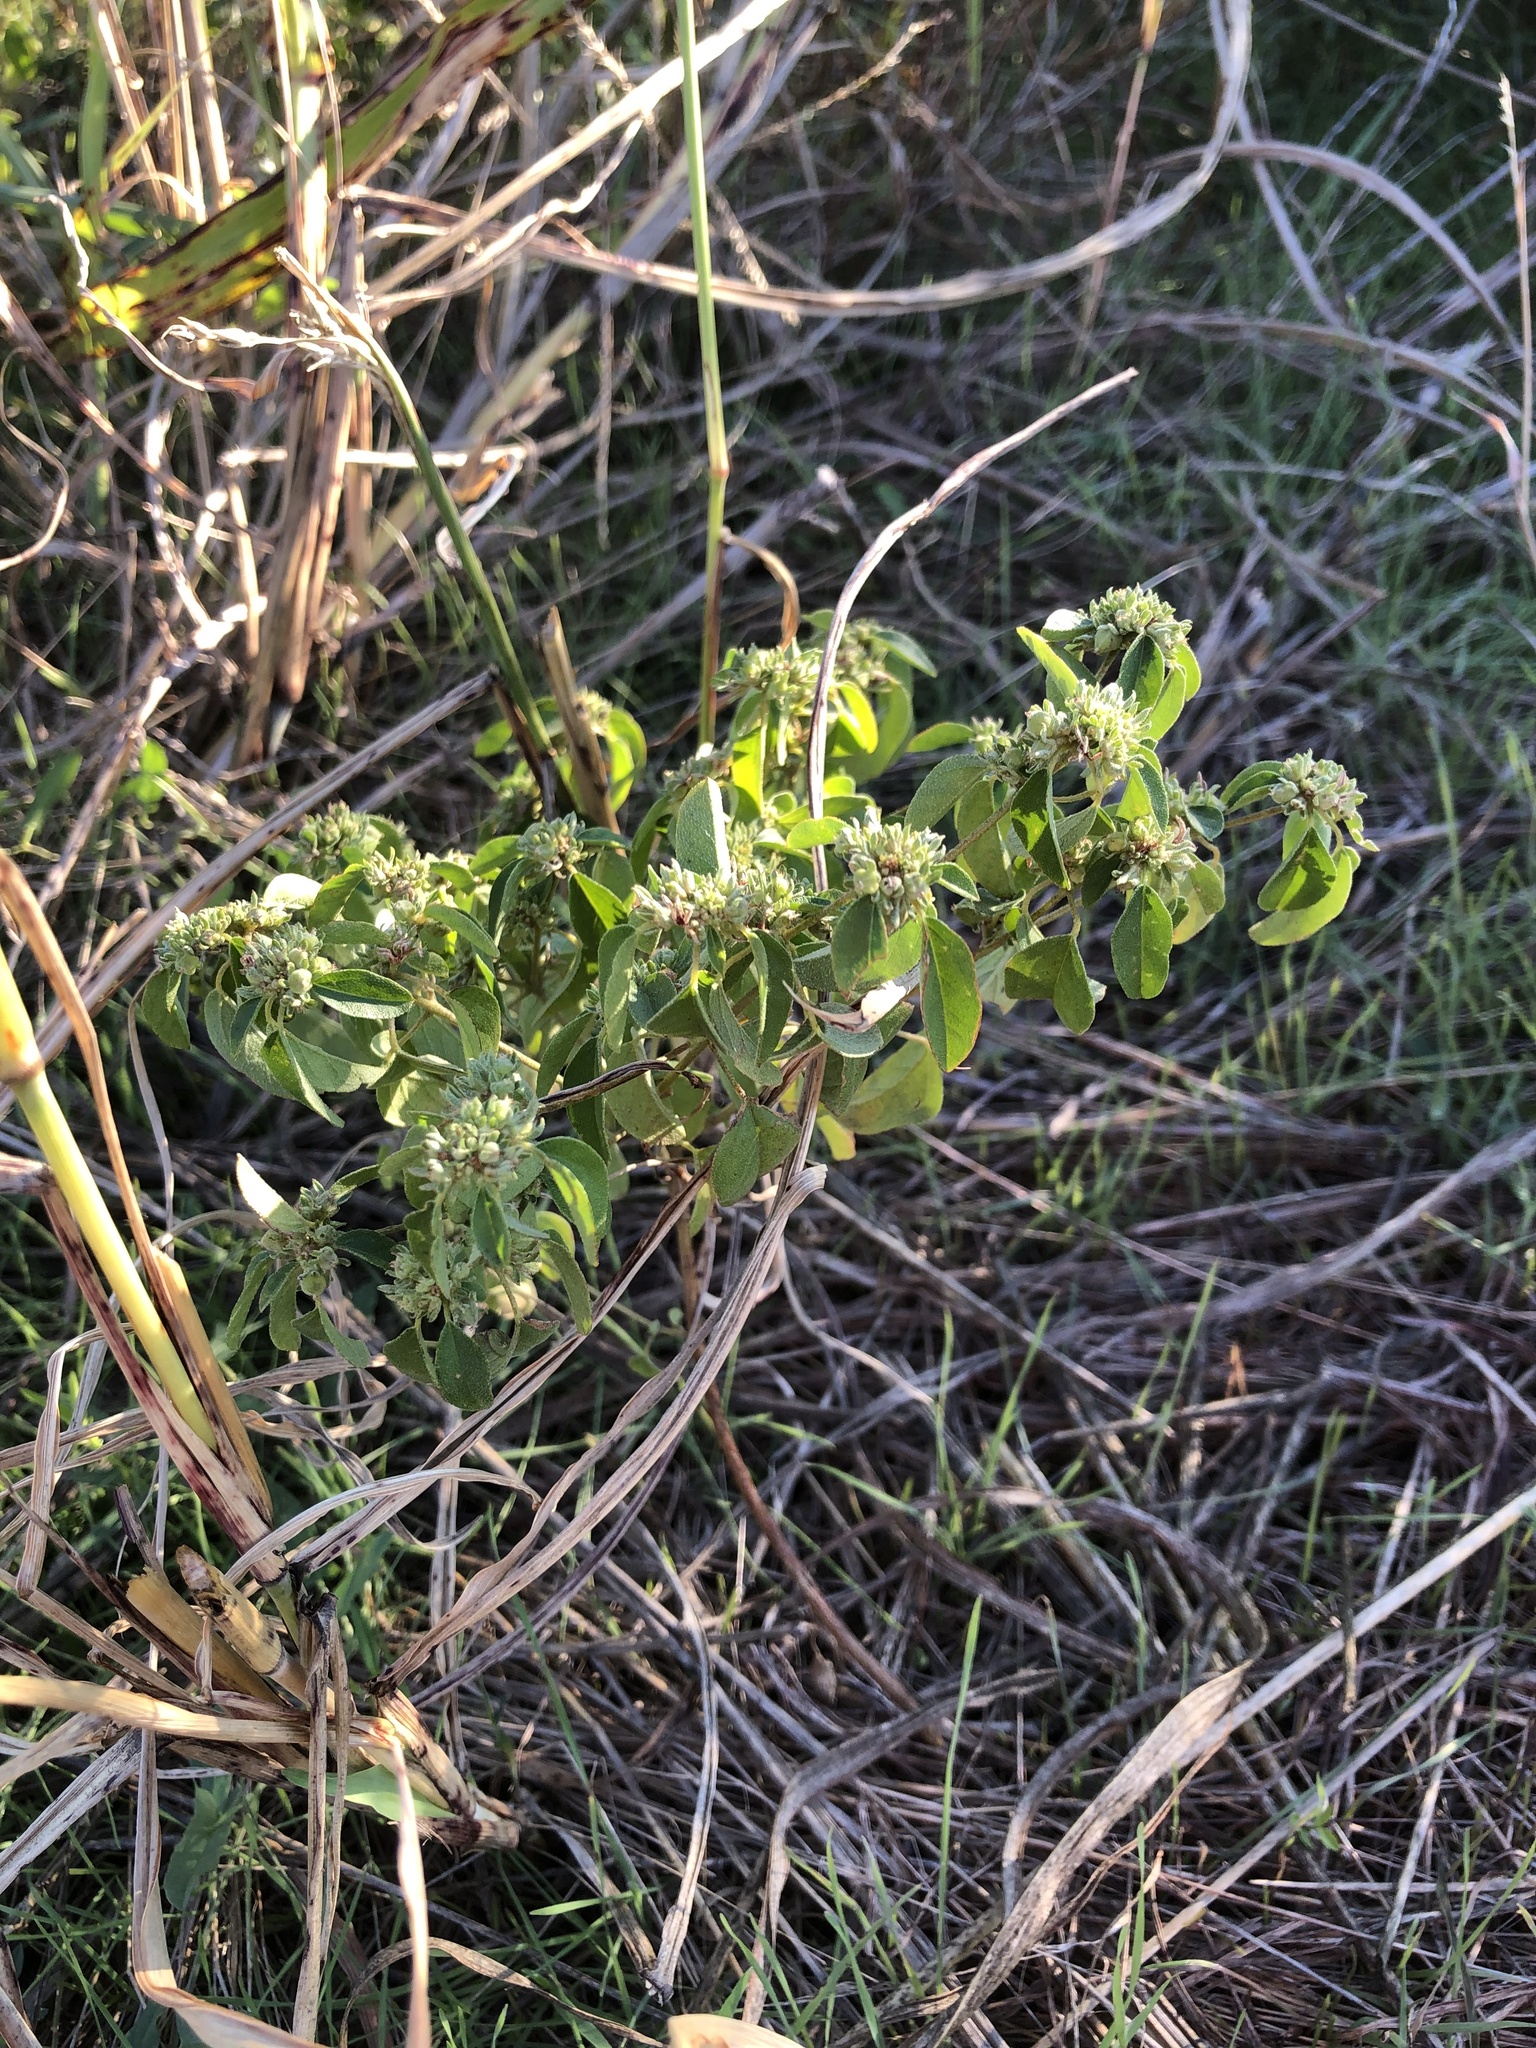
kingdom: Plantae
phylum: Tracheophyta
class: Magnoliopsida
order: Malpighiales
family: Euphorbiaceae
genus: Croton
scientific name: Croton monanthogynus
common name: One-seed croton
